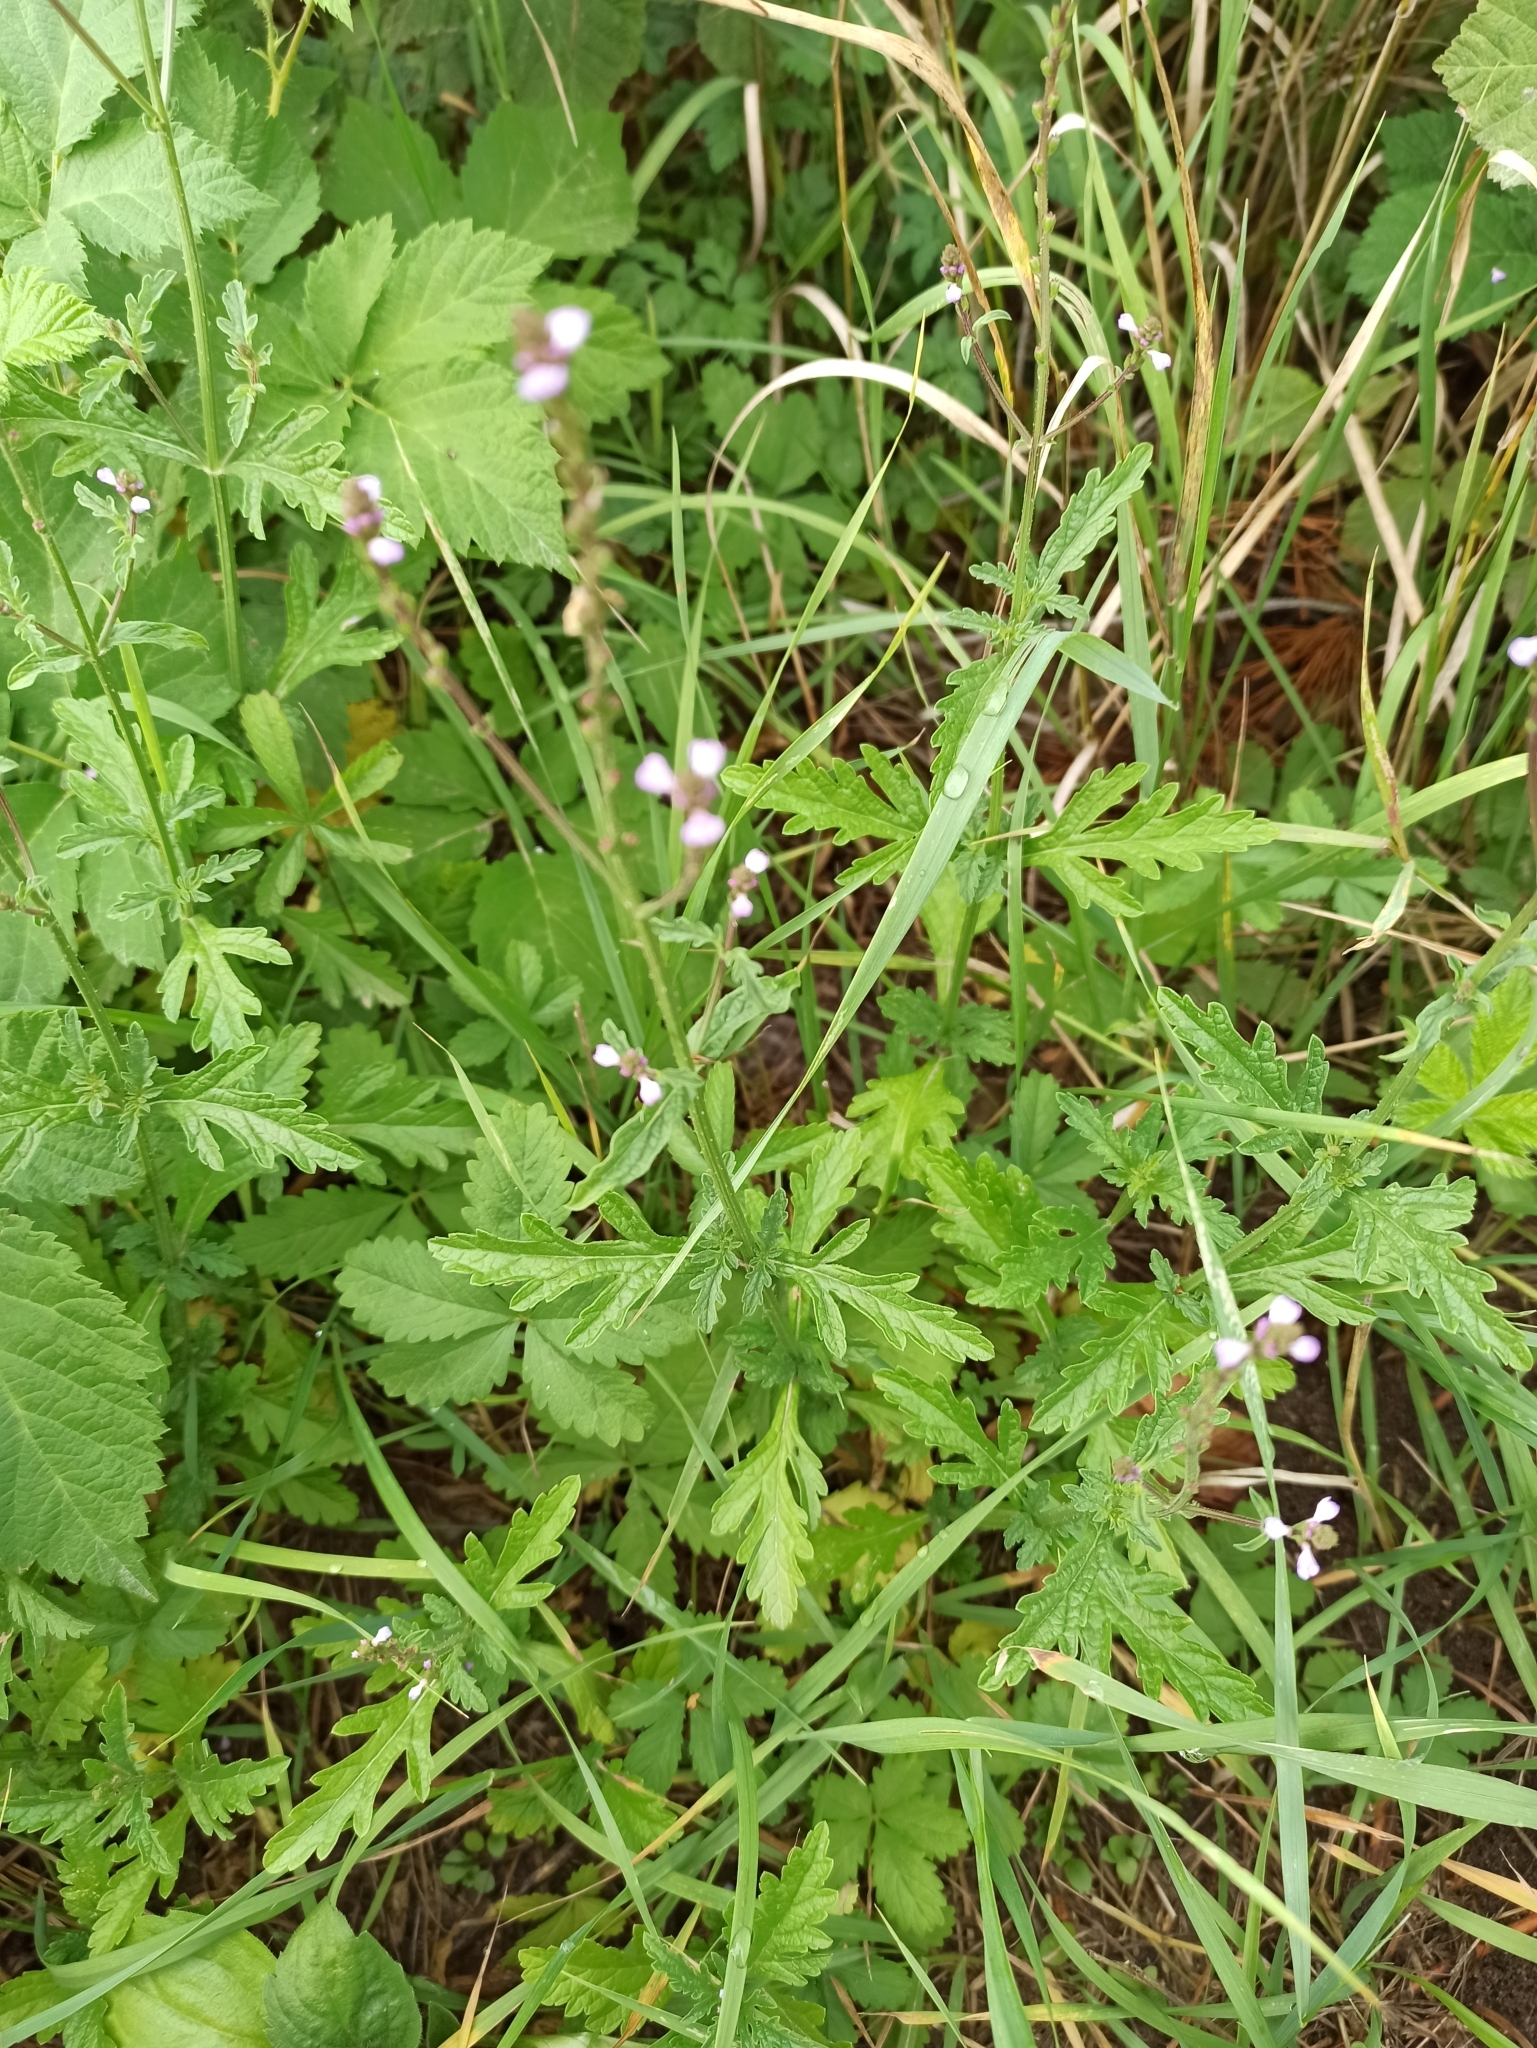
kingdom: Plantae
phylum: Tracheophyta
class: Magnoliopsida
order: Lamiales
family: Verbenaceae
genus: Verbena
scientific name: Verbena officinalis
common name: Vervain
